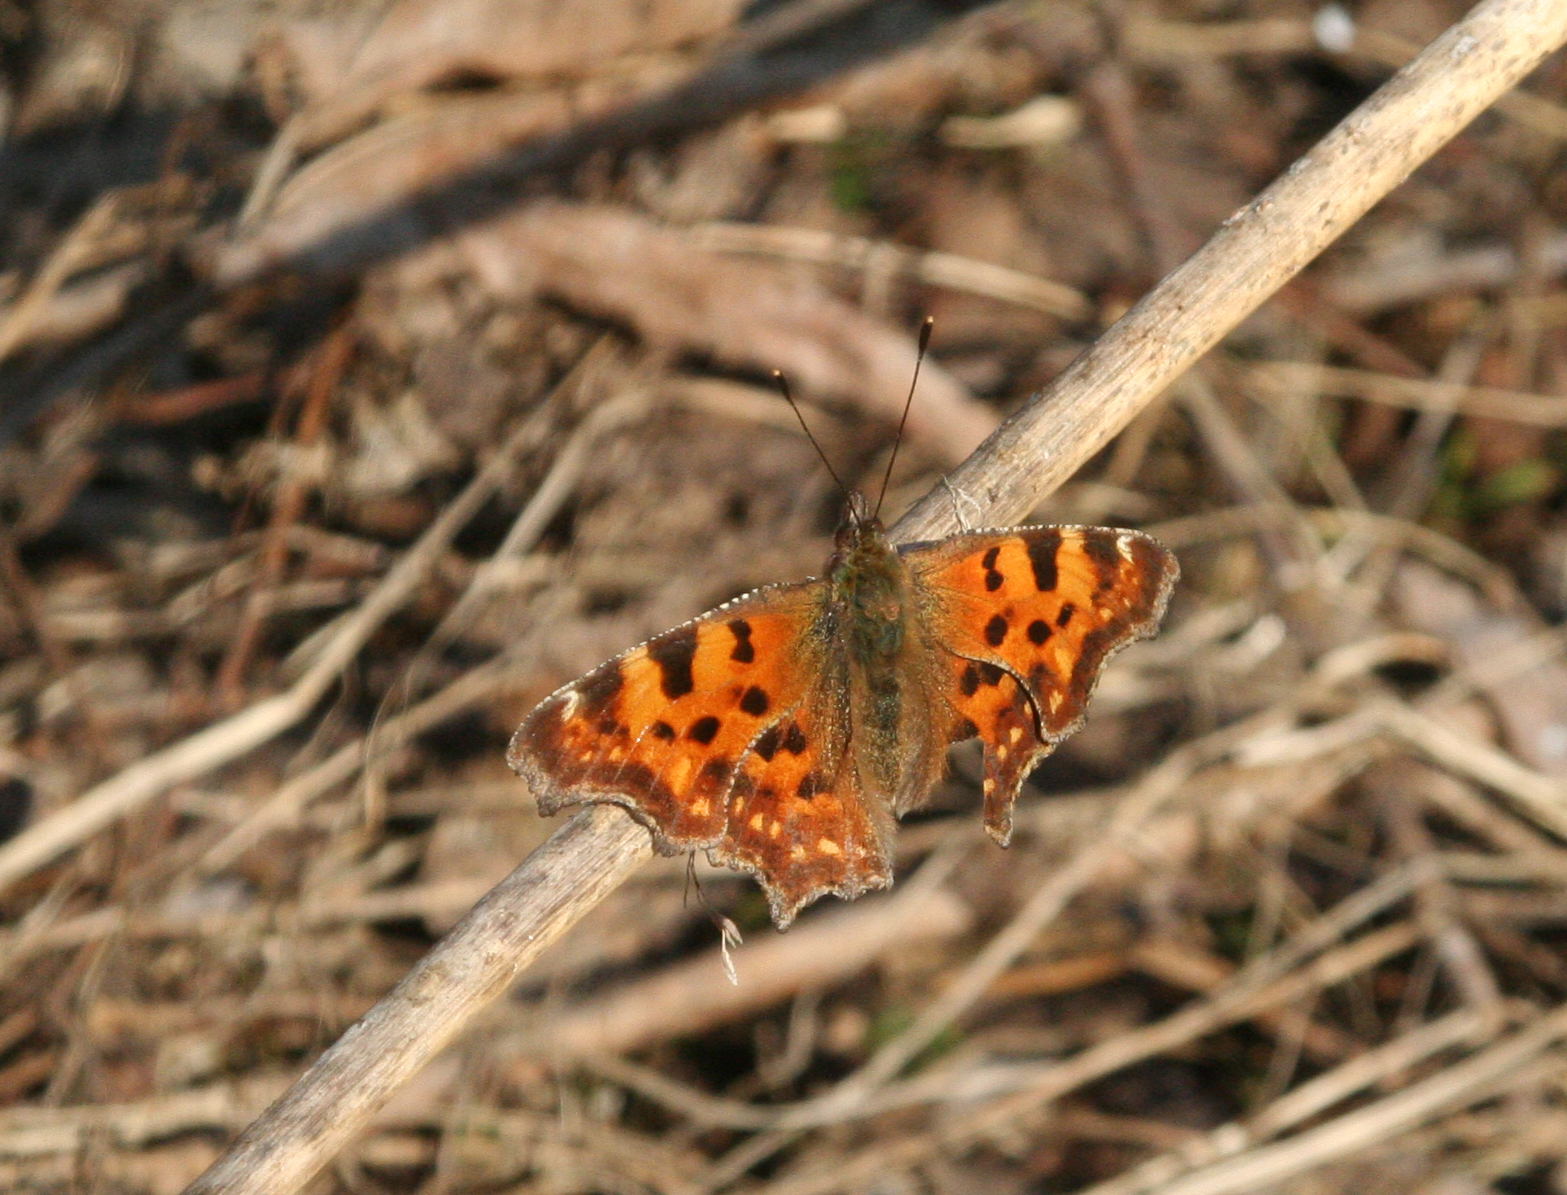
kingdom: Animalia
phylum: Arthropoda
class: Insecta
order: Lepidoptera
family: Nymphalidae
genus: Polygonia
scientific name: Polygonia c-album
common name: Comma
